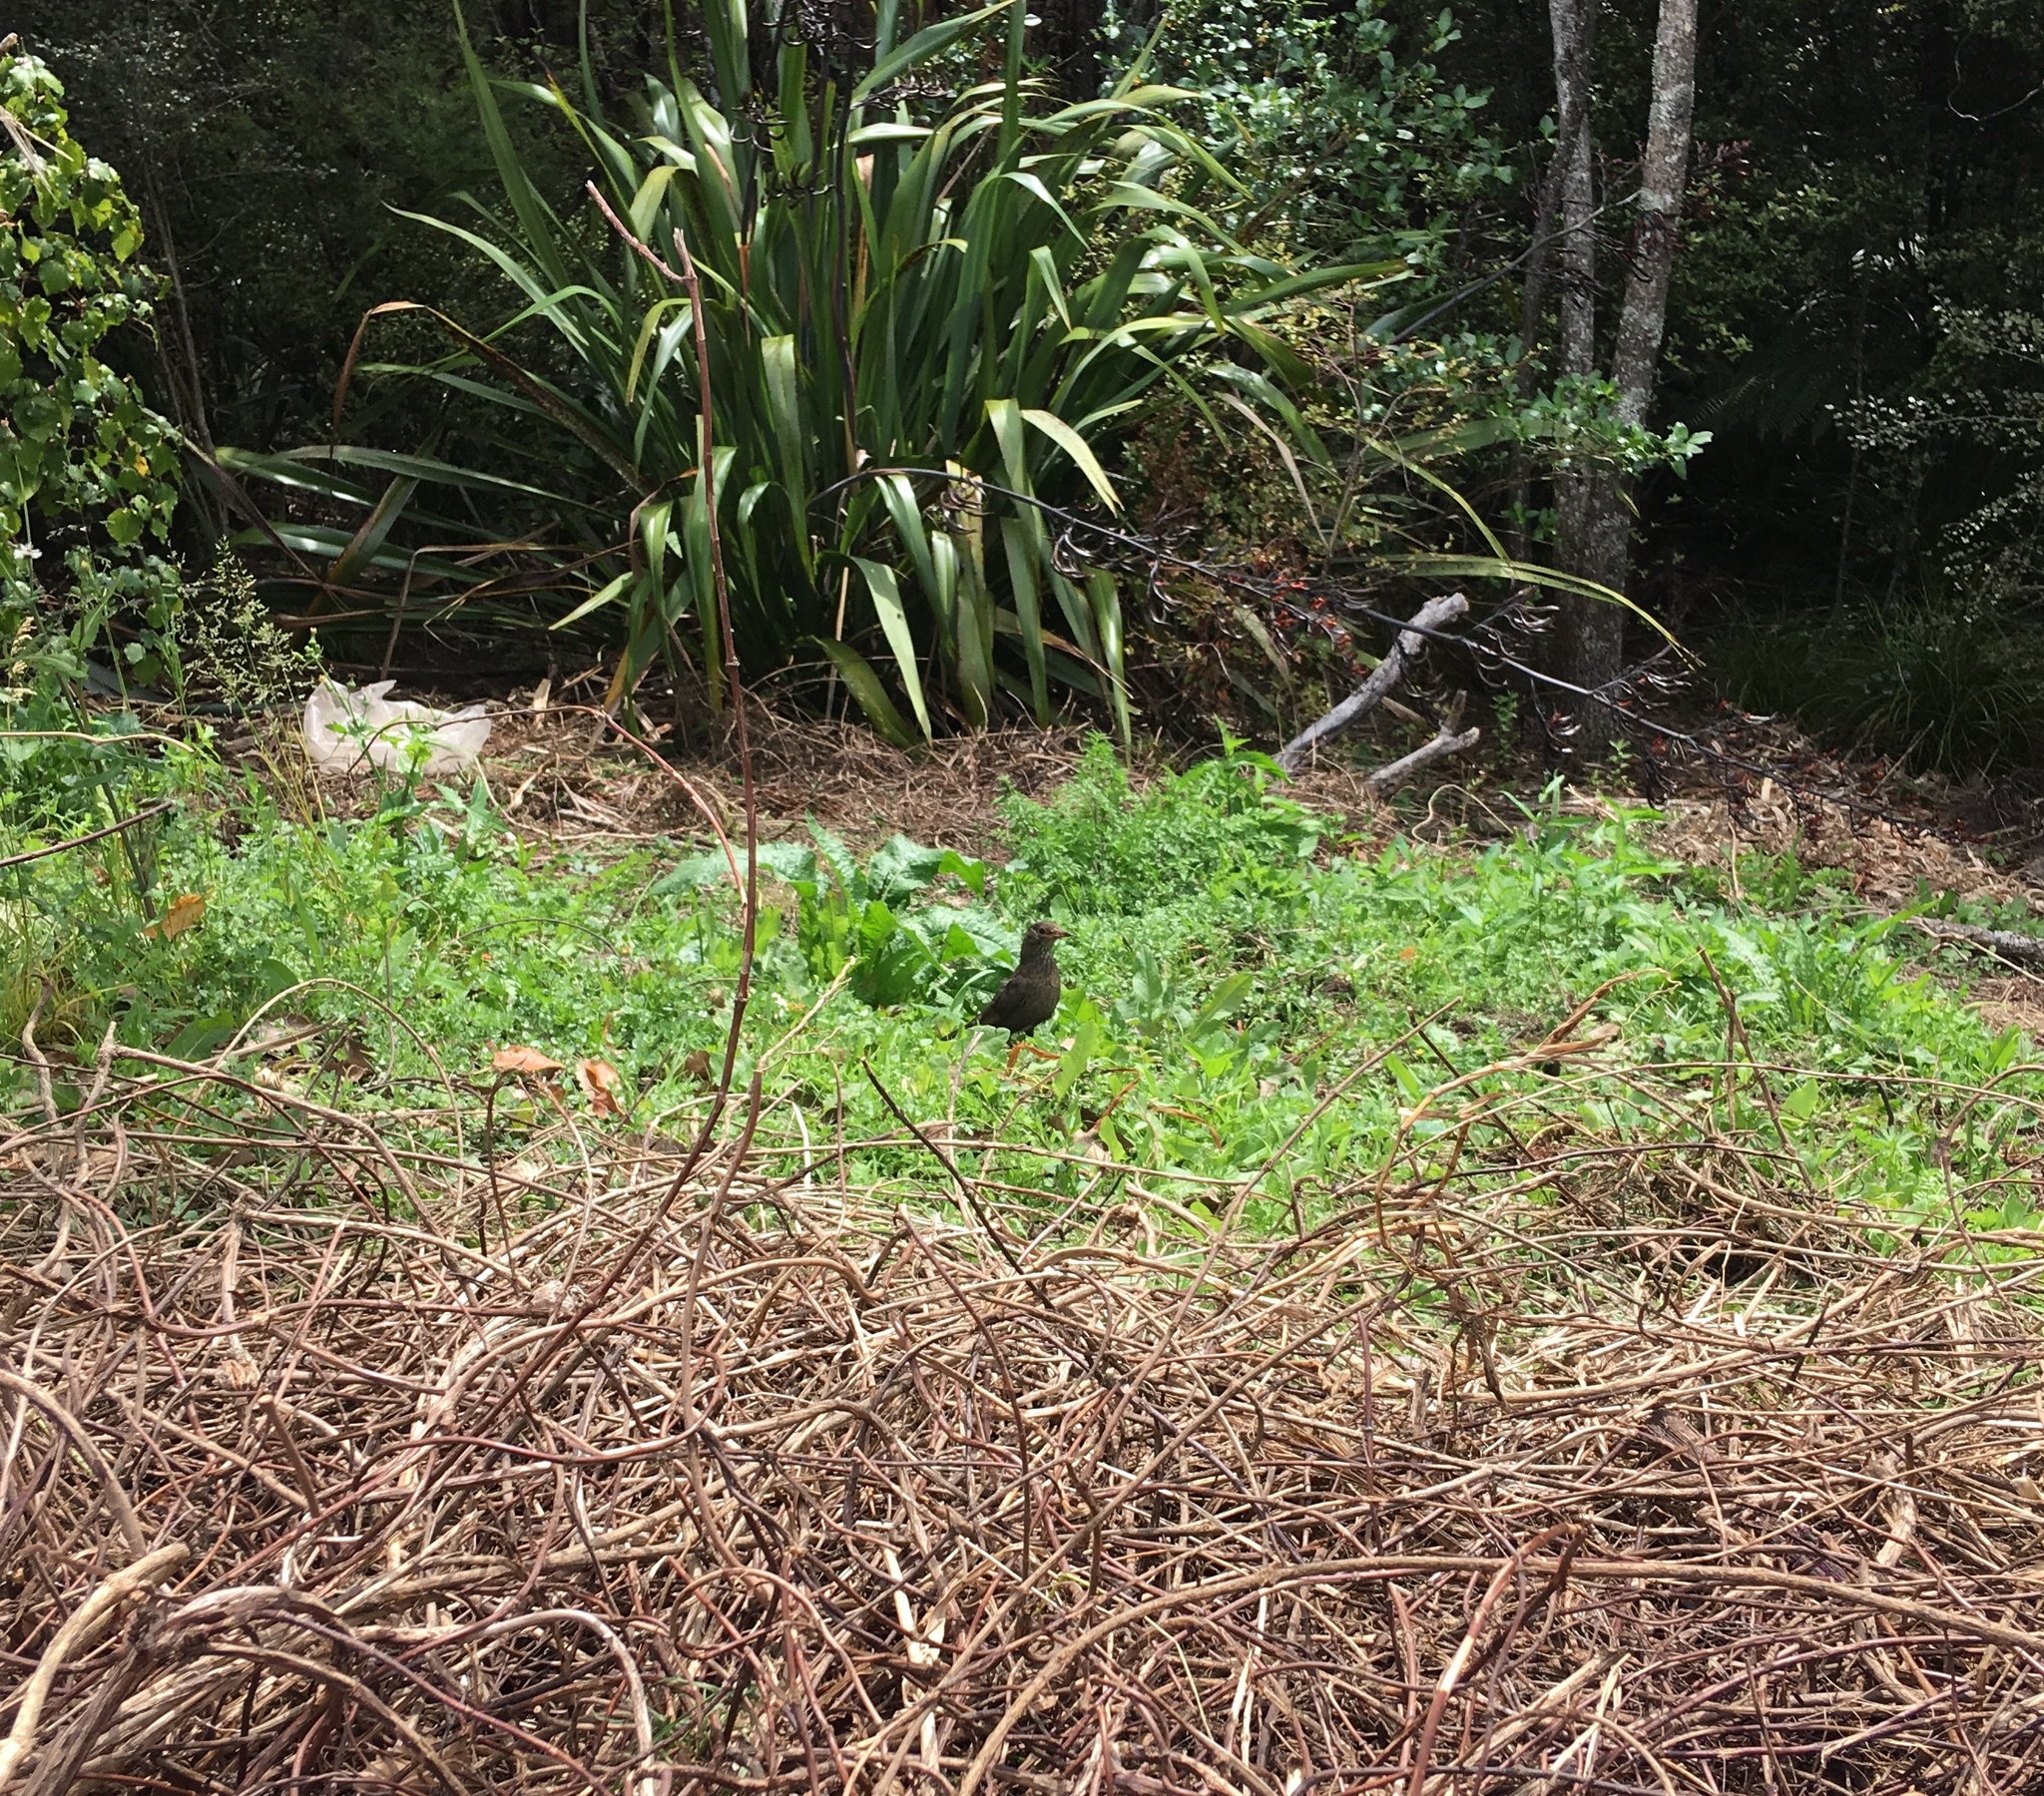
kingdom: Animalia
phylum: Chordata
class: Aves
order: Passeriformes
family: Turdidae
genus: Turdus
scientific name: Turdus merula
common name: Common blackbird
